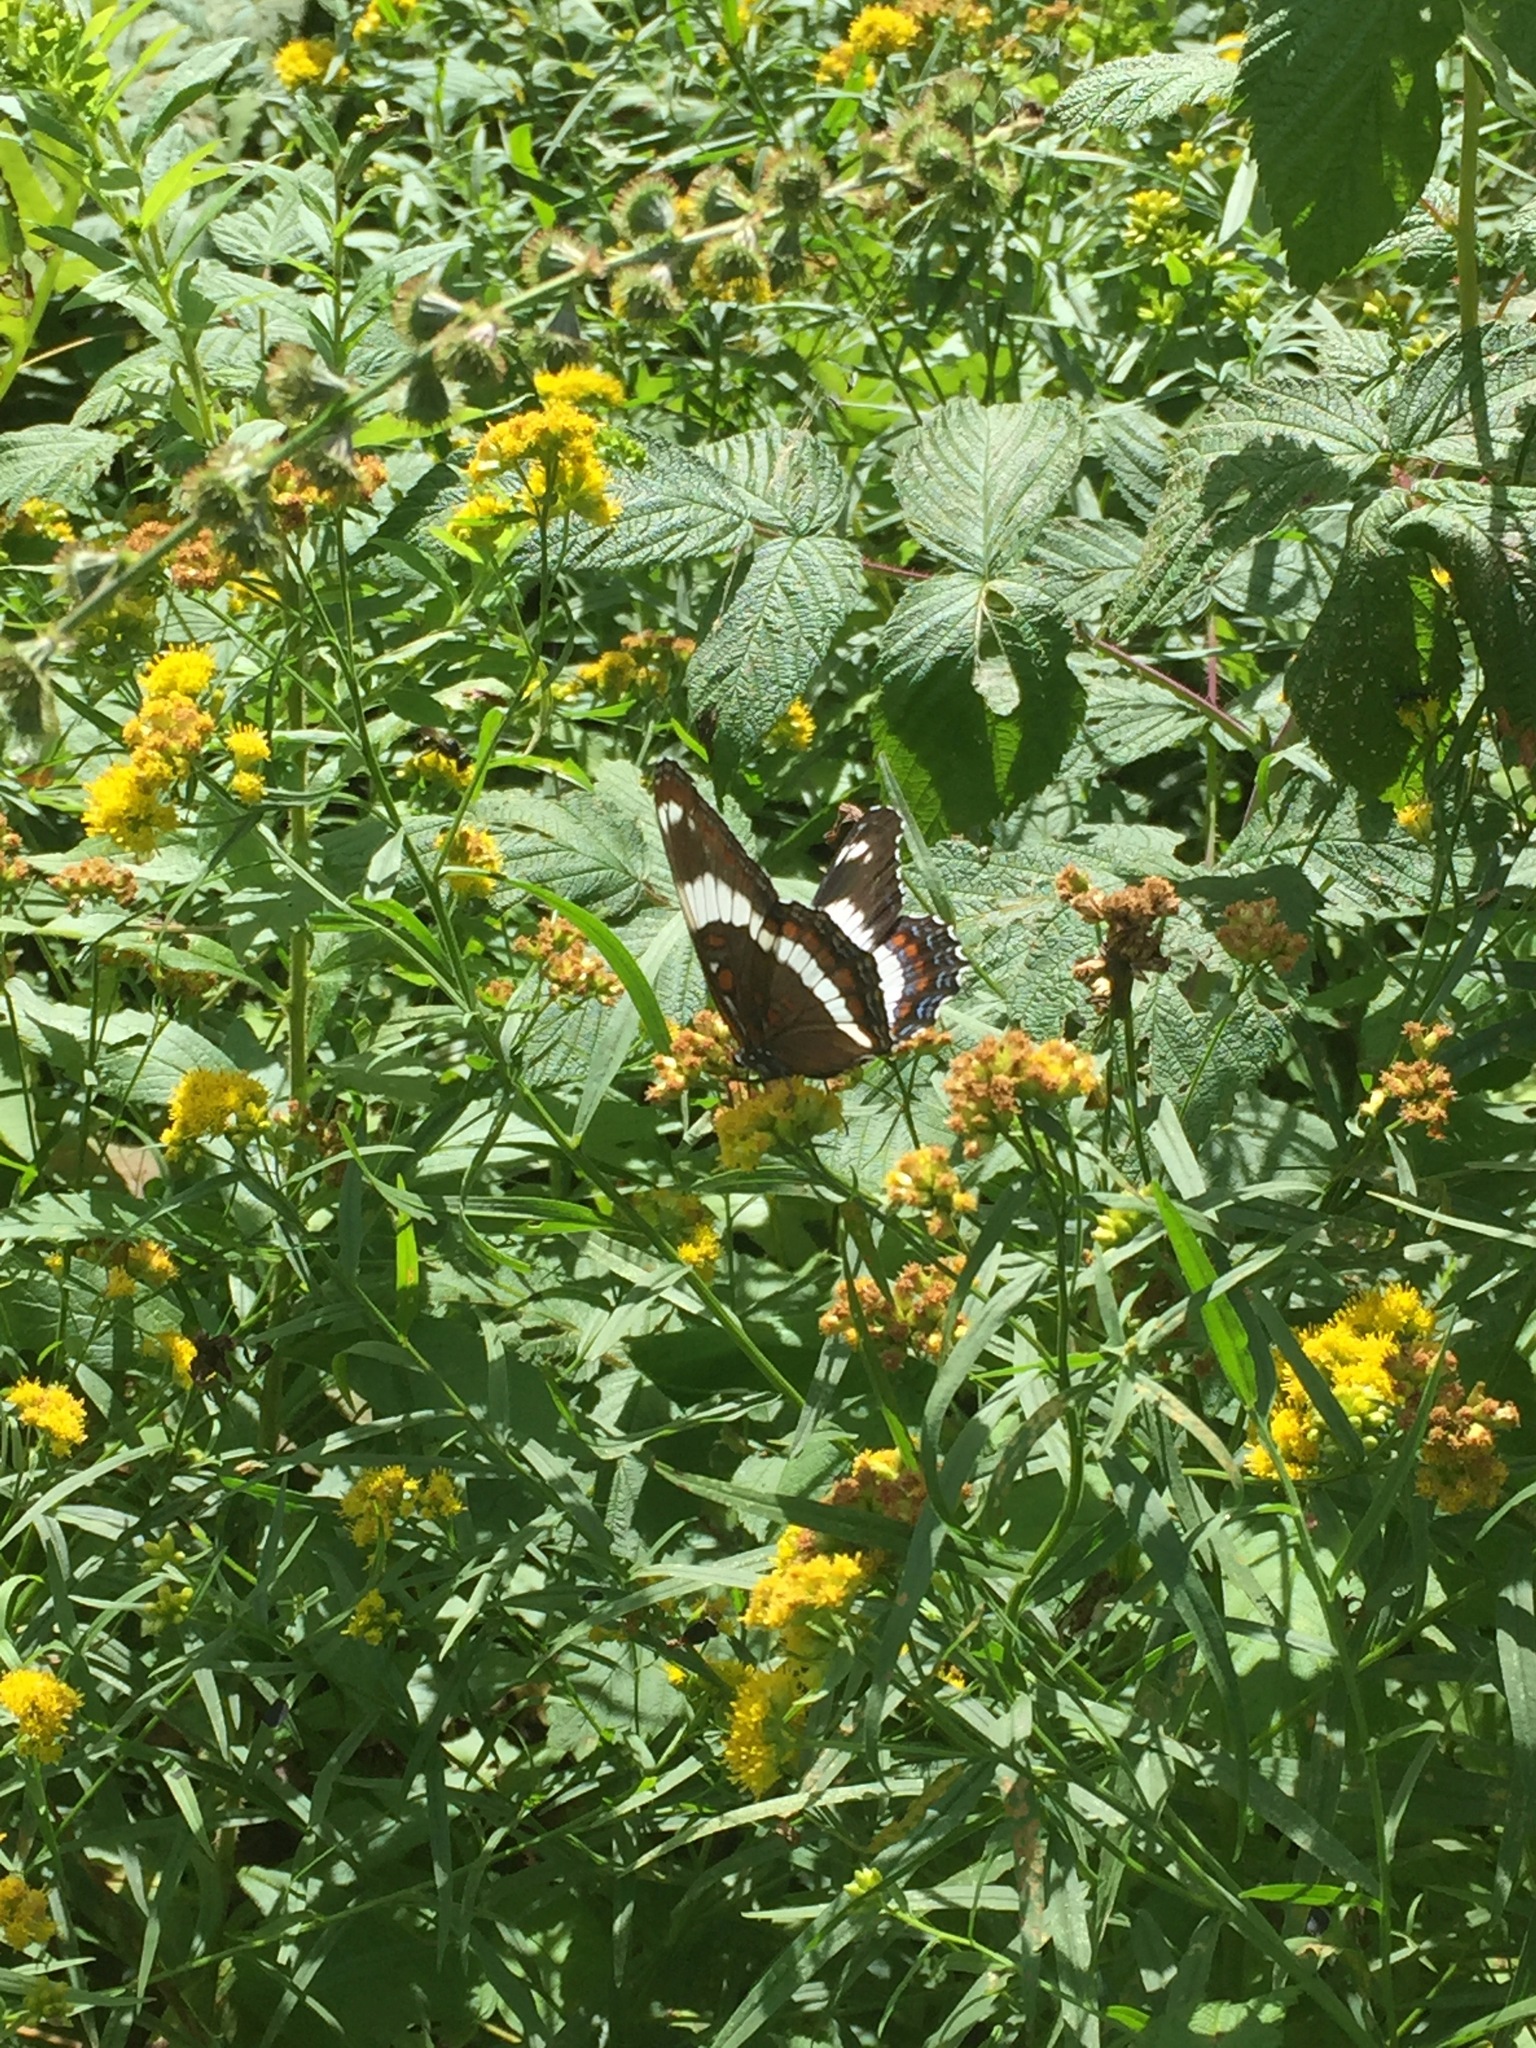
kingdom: Animalia
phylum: Arthropoda
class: Insecta
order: Lepidoptera
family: Nymphalidae
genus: Limenitis
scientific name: Limenitis arthemis
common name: Red-spotted admiral
